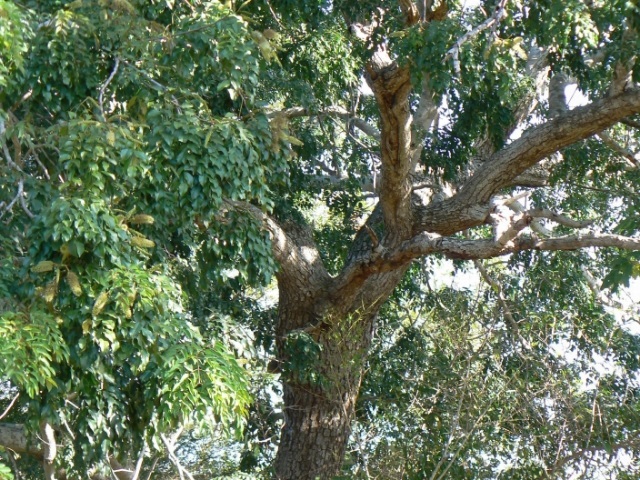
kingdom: Plantae
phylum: Tracheophyta
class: Magnoliopsida
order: Fabales
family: Fabaceae
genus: Erythrophleum
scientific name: Erythrophleum lasianthum
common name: Maputaland ordeal tree
